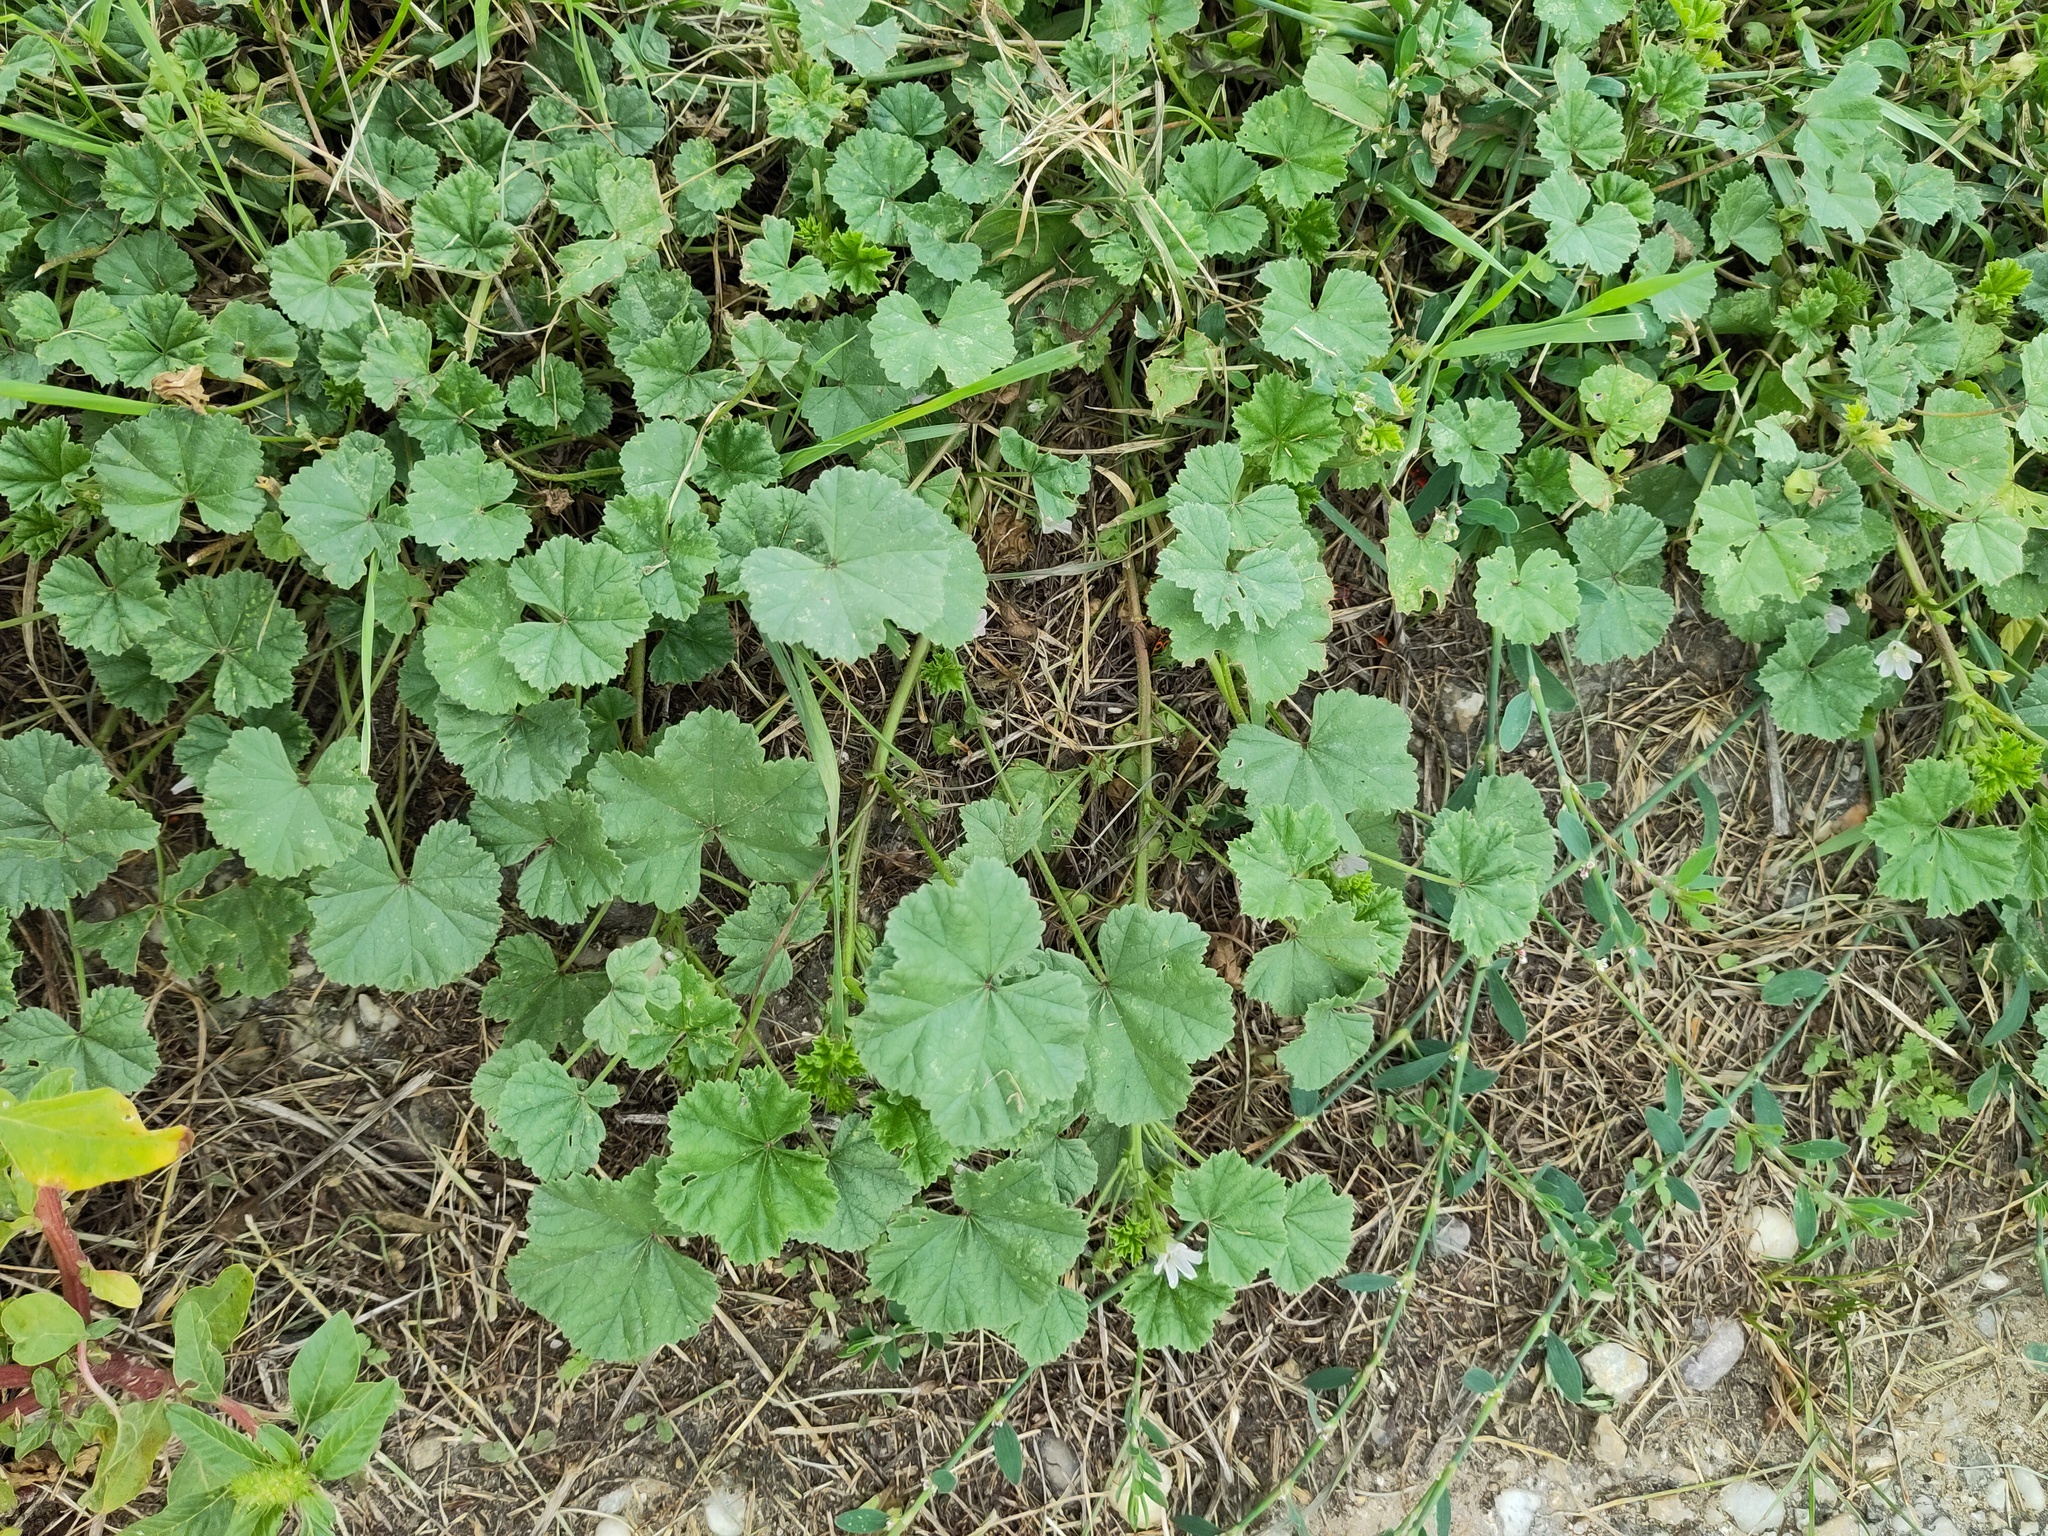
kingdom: Plantae
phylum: Tracheophyta
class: Magnoliopsida
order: Malvales
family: Malvaceae
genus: Malva
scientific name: Malva neglecta
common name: Common mallow
